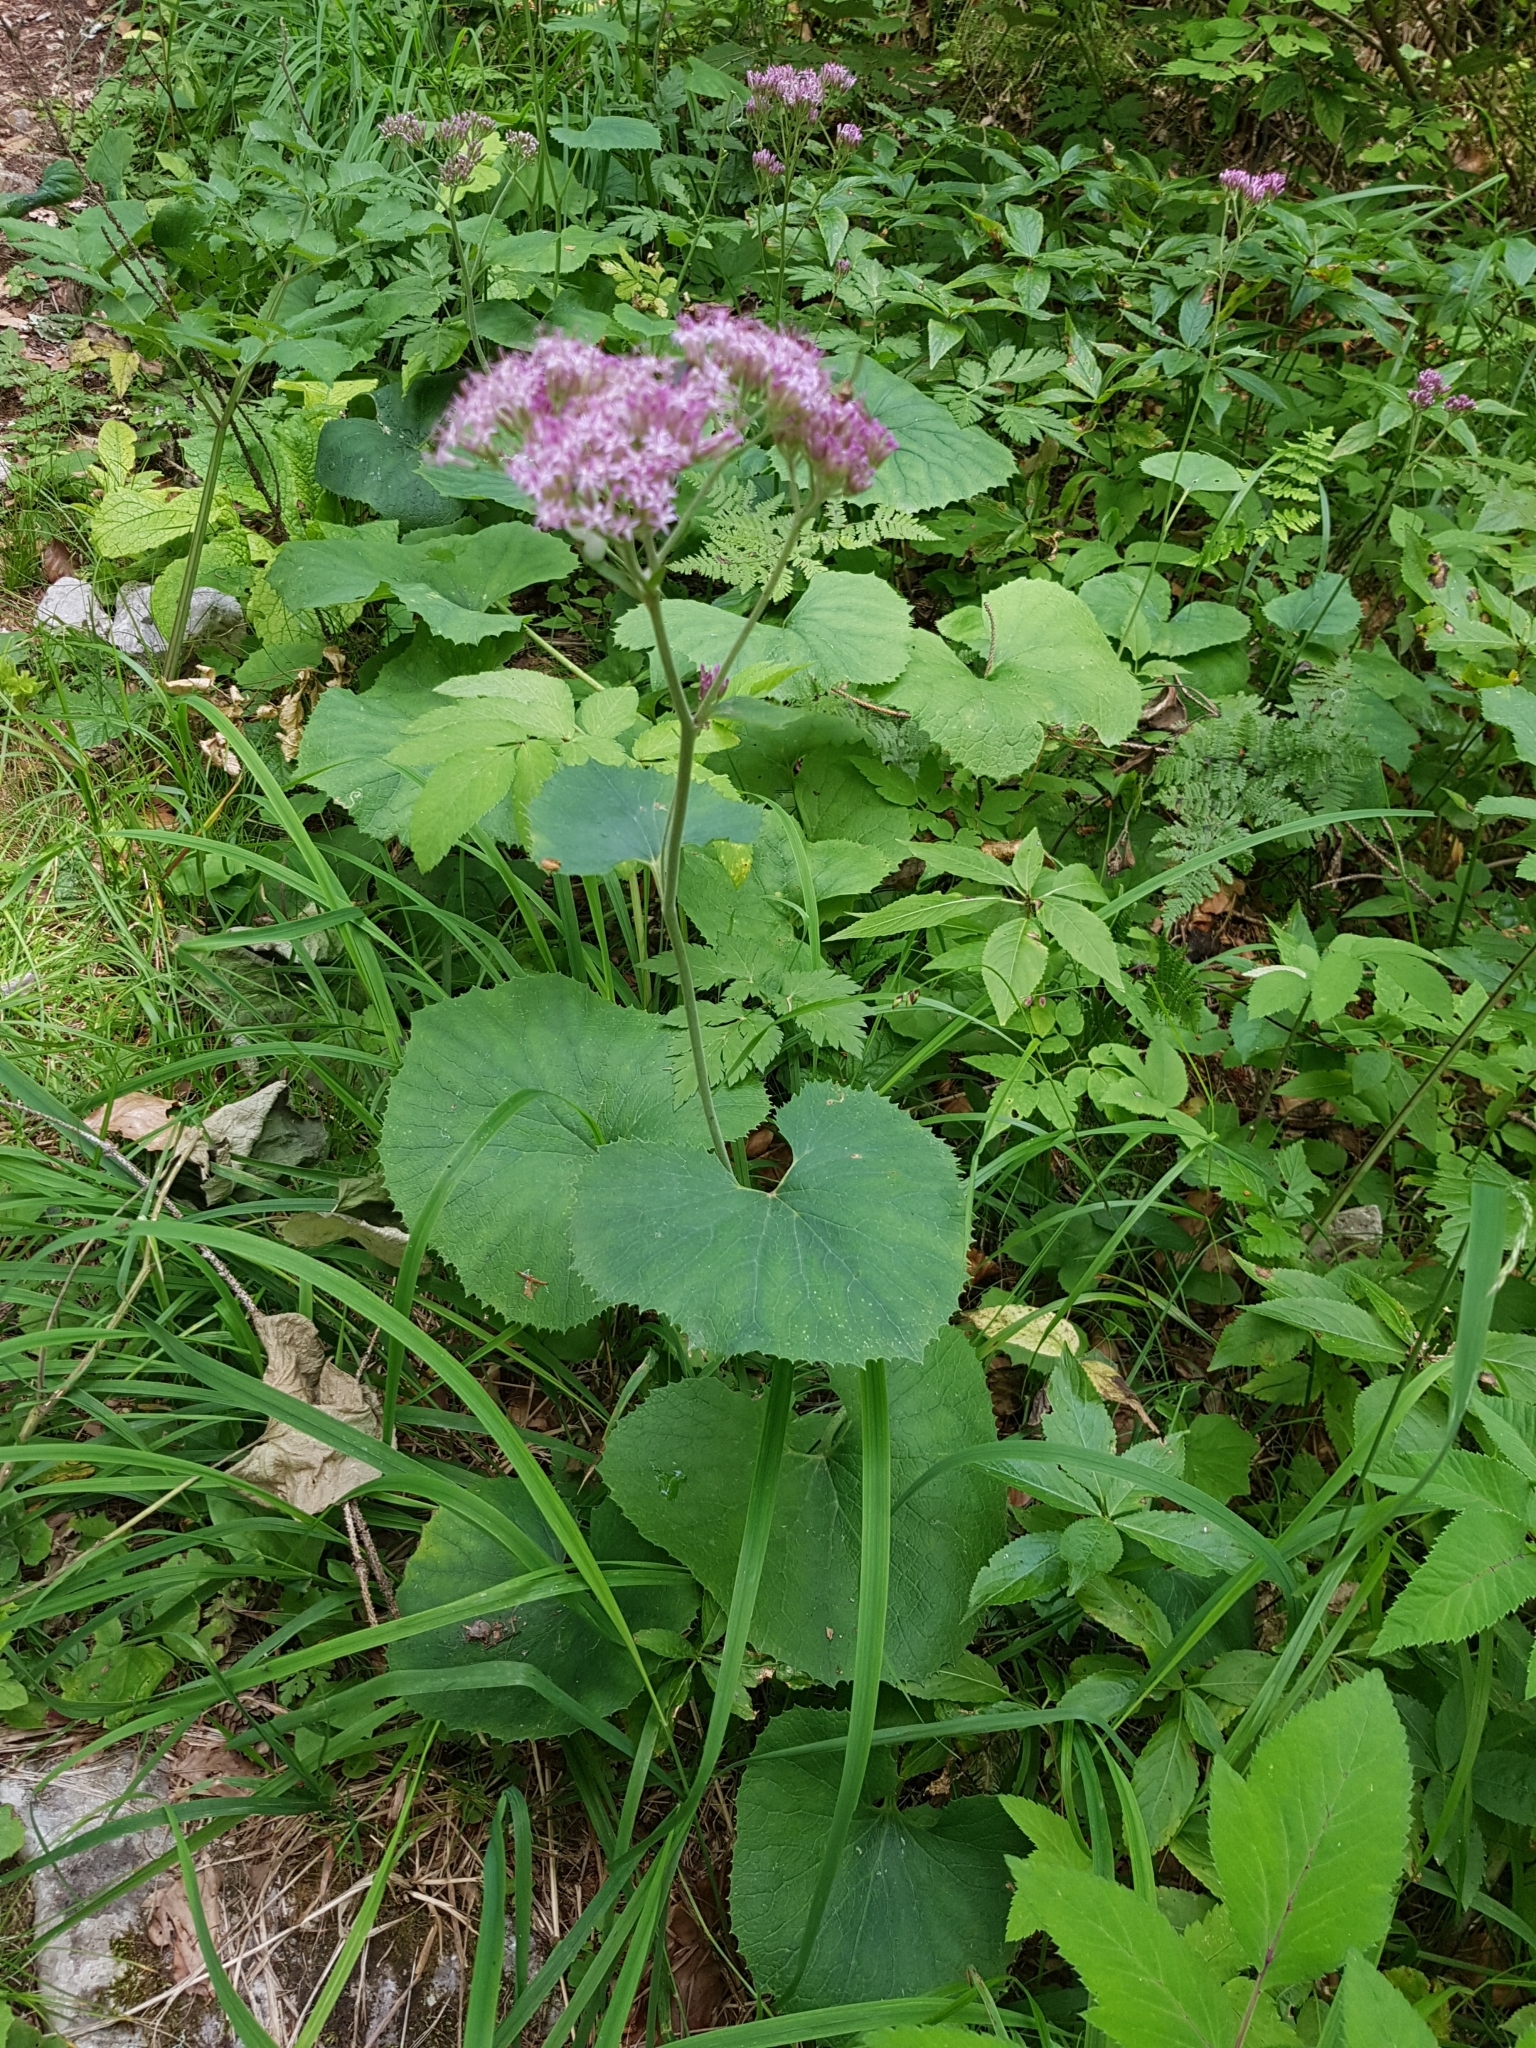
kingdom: Plantae
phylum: Tracheophyta
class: Magnoliopsida
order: Asterales
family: Asteraceae
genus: Adenostyles
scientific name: Adenostyles alpina
